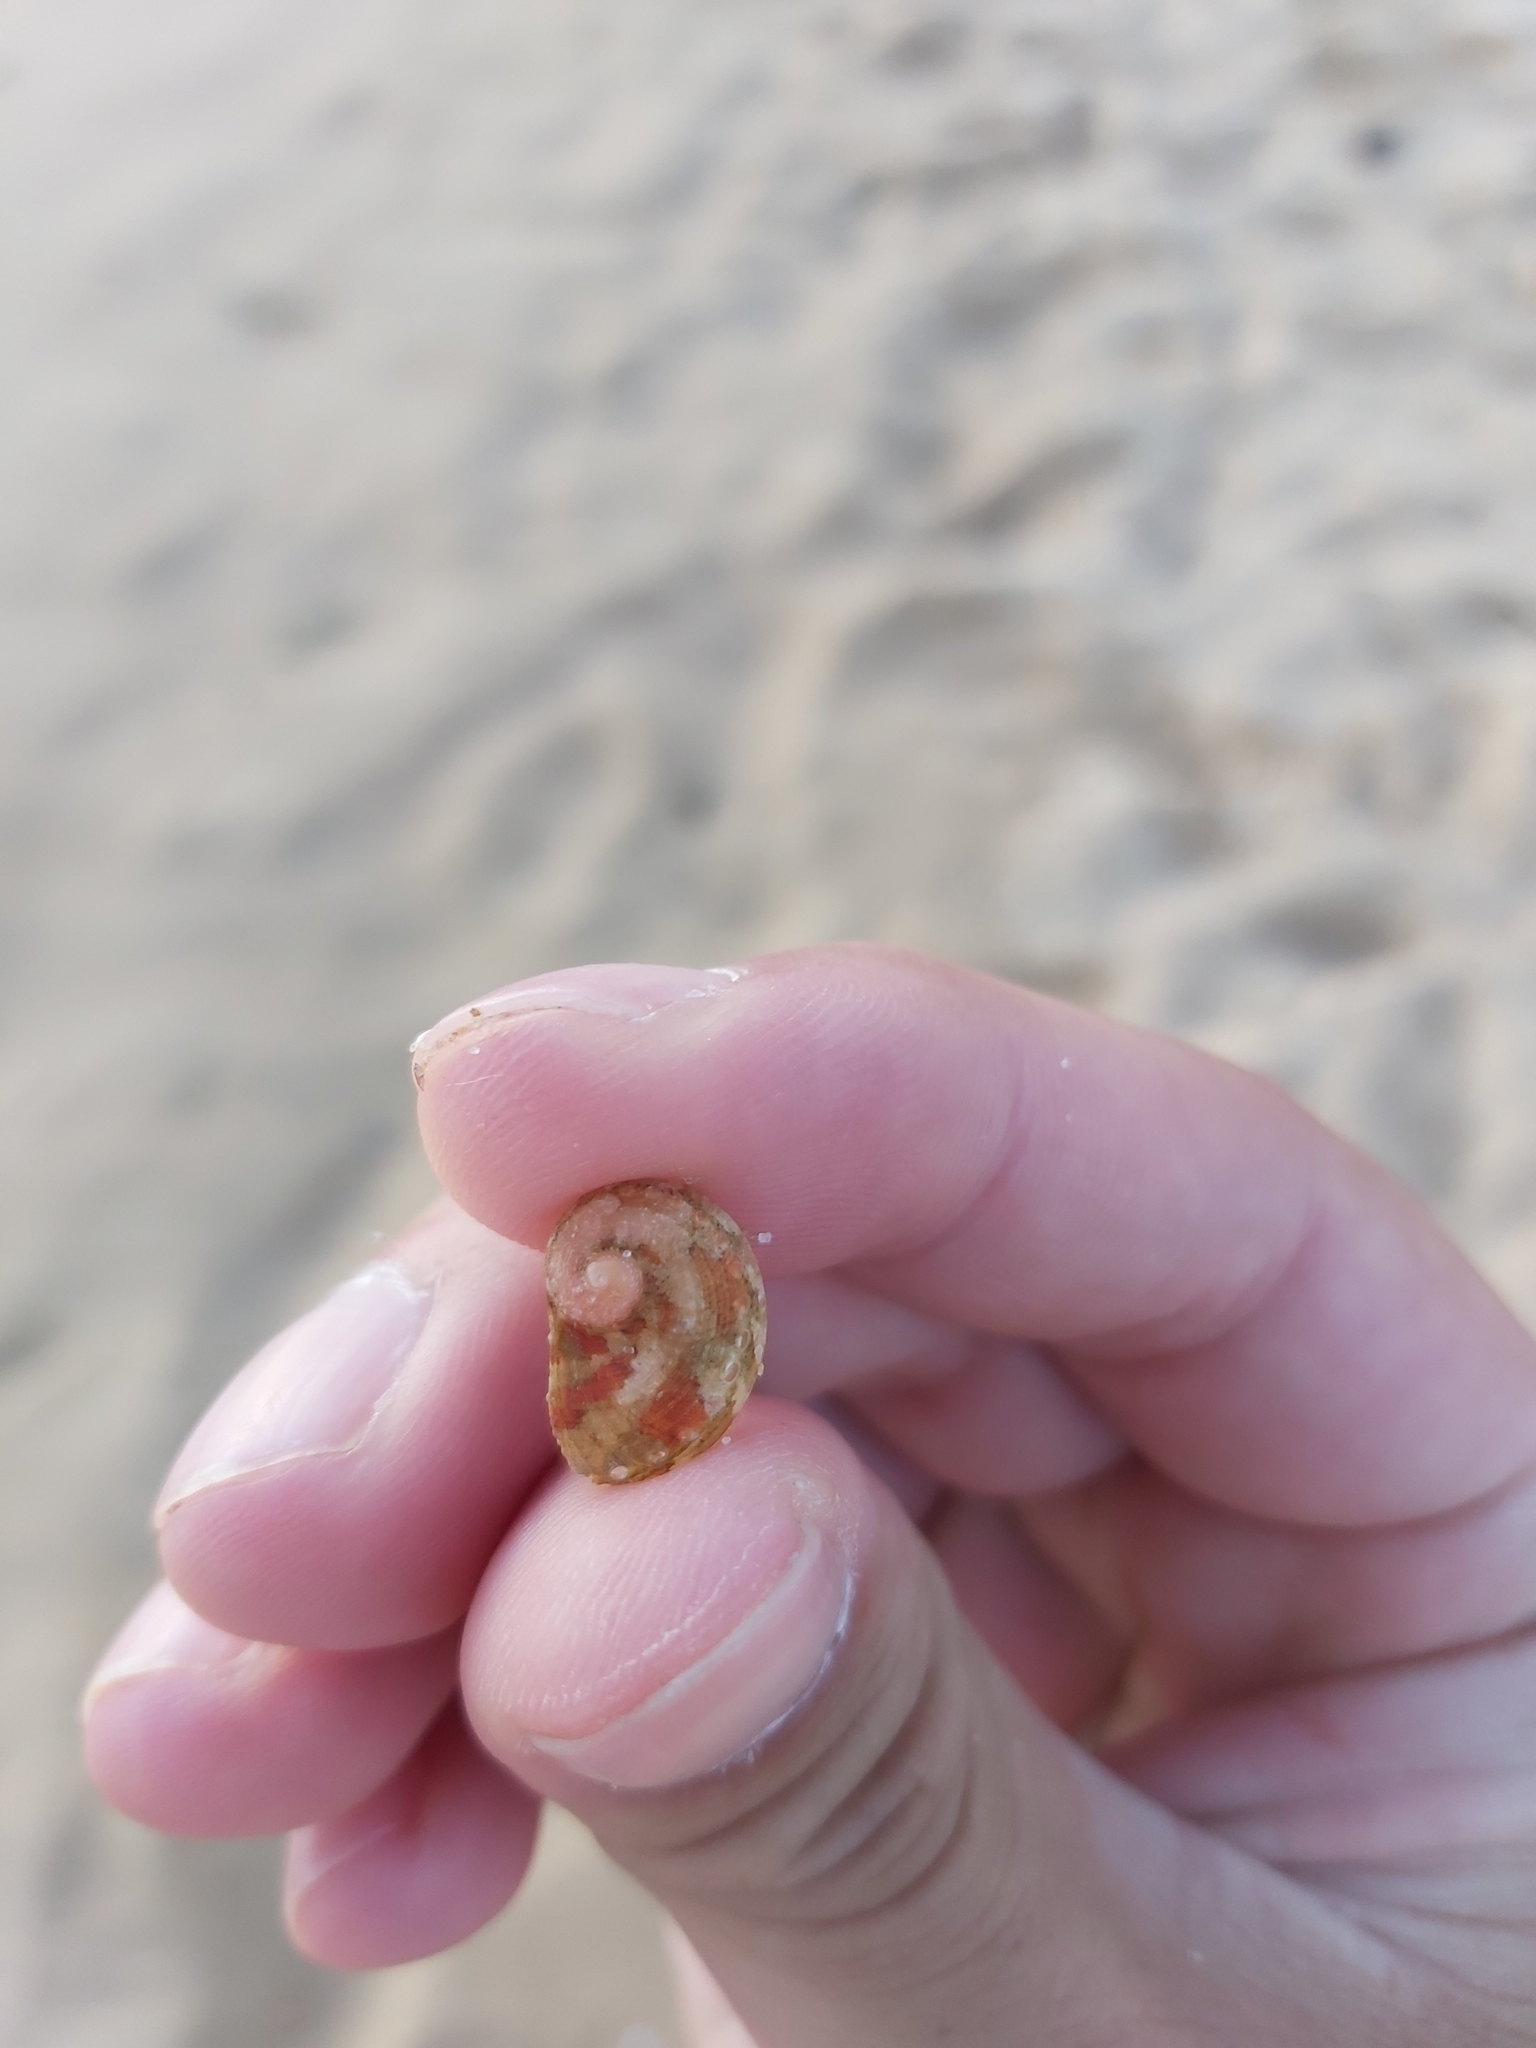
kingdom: Animalia
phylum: Mollusca
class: Gastropoda
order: Lepetellida
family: Haliotidae
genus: Haliotis
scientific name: Haliotis coccoradiata
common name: Reddish-rayed abalone
